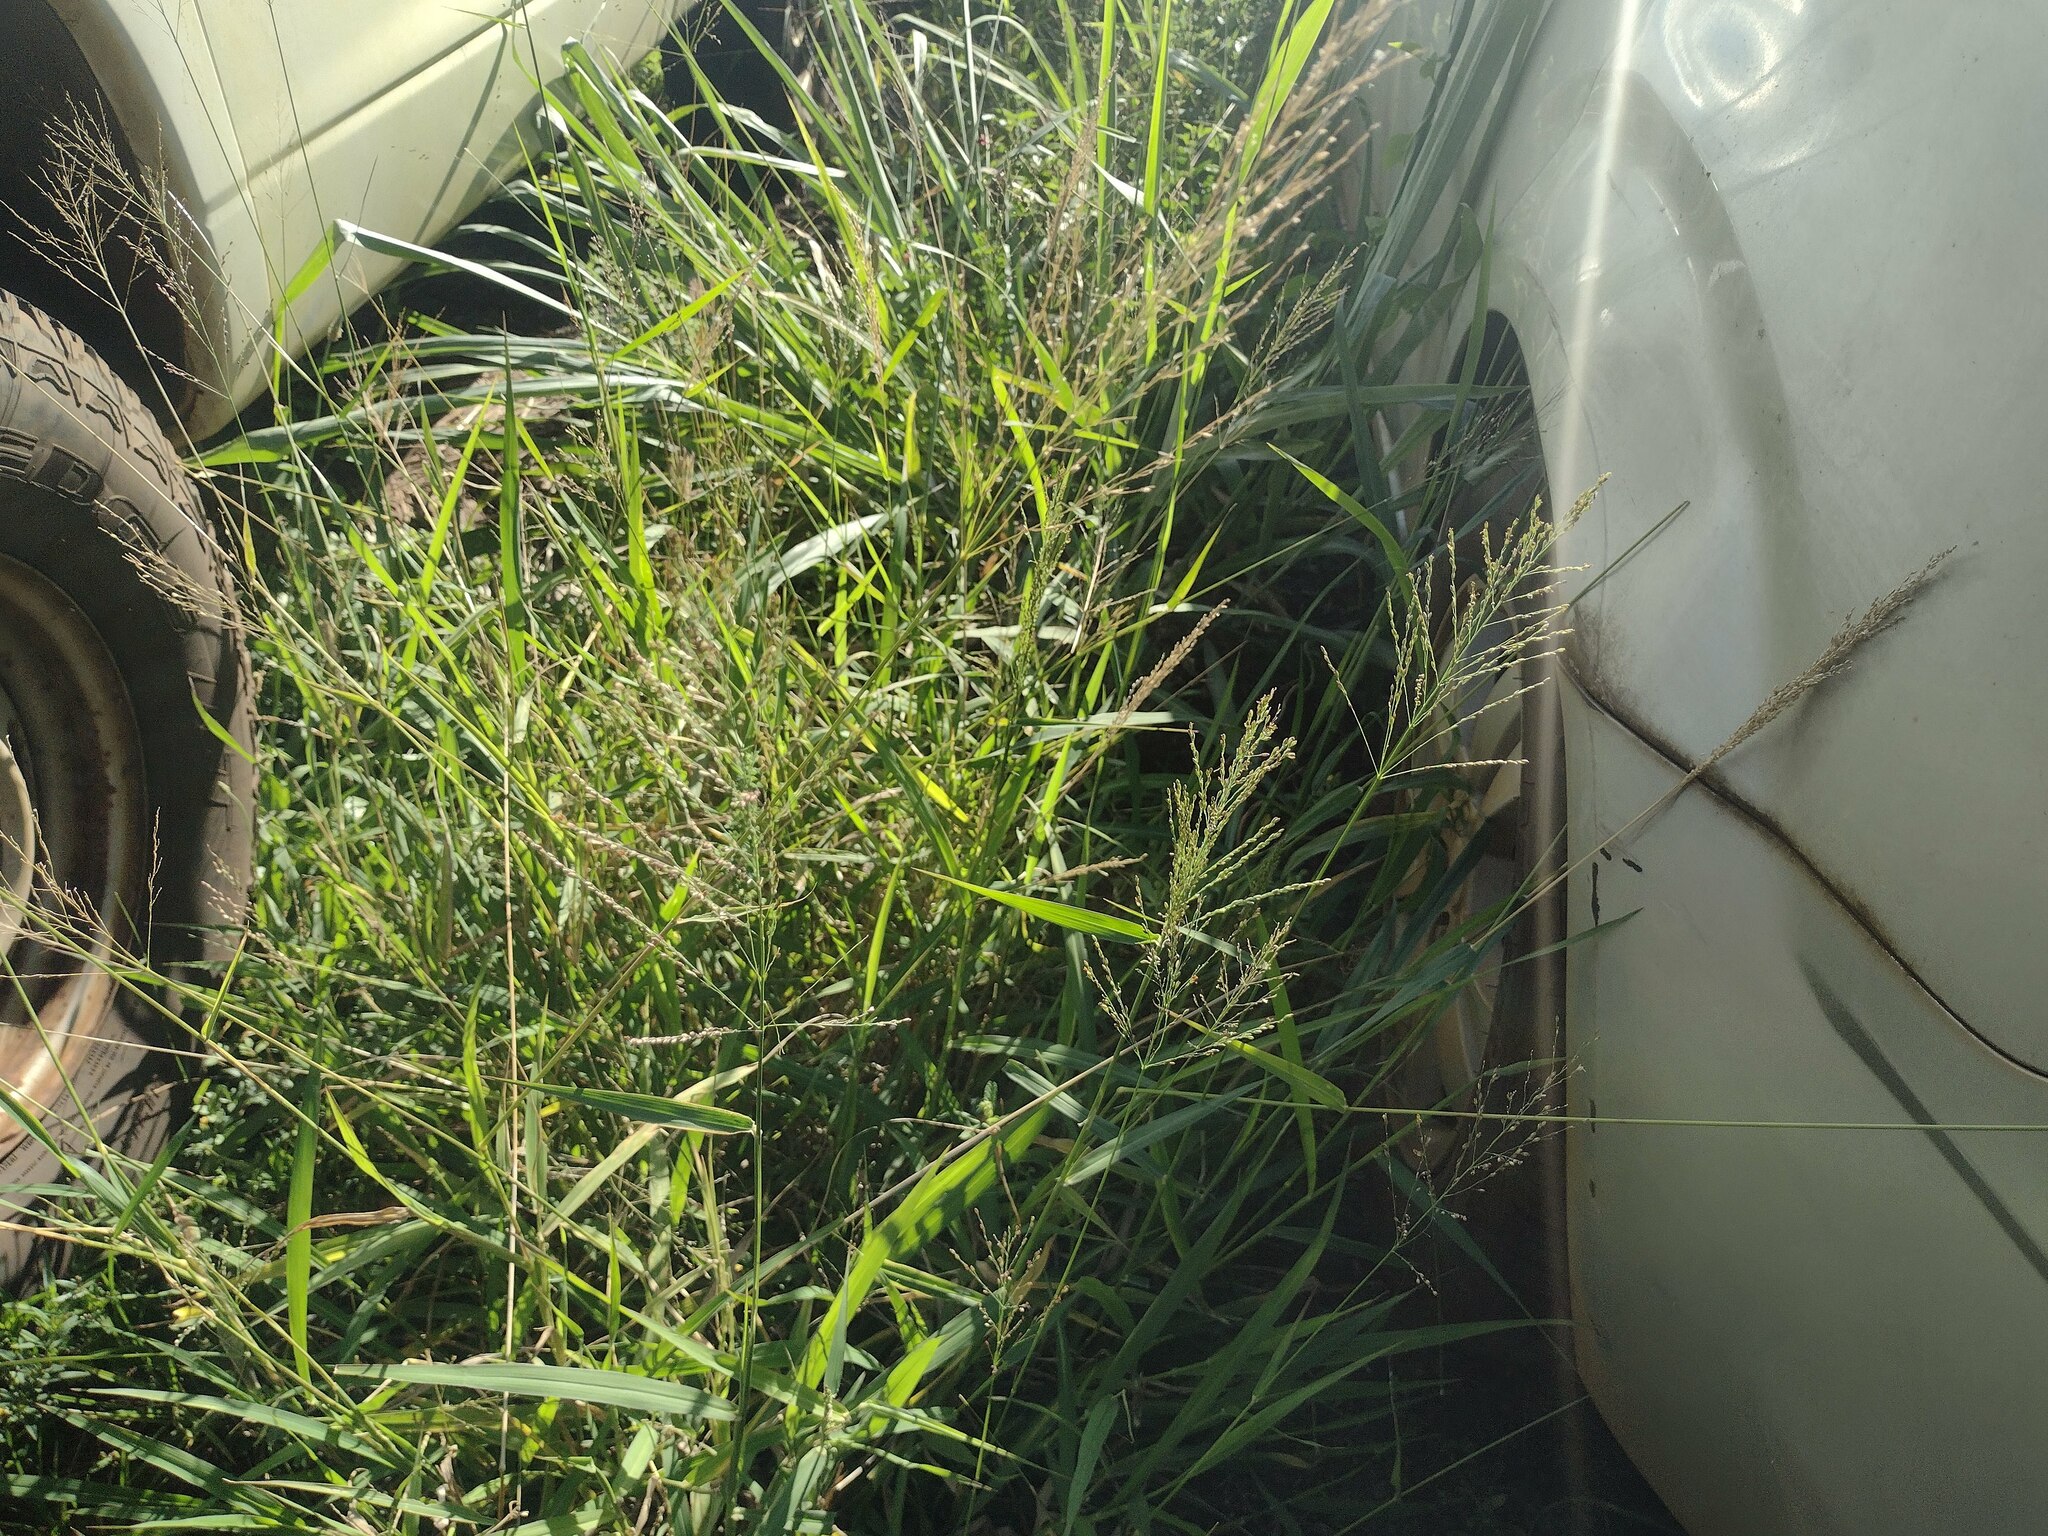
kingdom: Plantae
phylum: Tracheophyta
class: Liliopsida
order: Poales
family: Poaceae
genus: Megathyrsus
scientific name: Megathyrsus maximus
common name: Guineagrass
